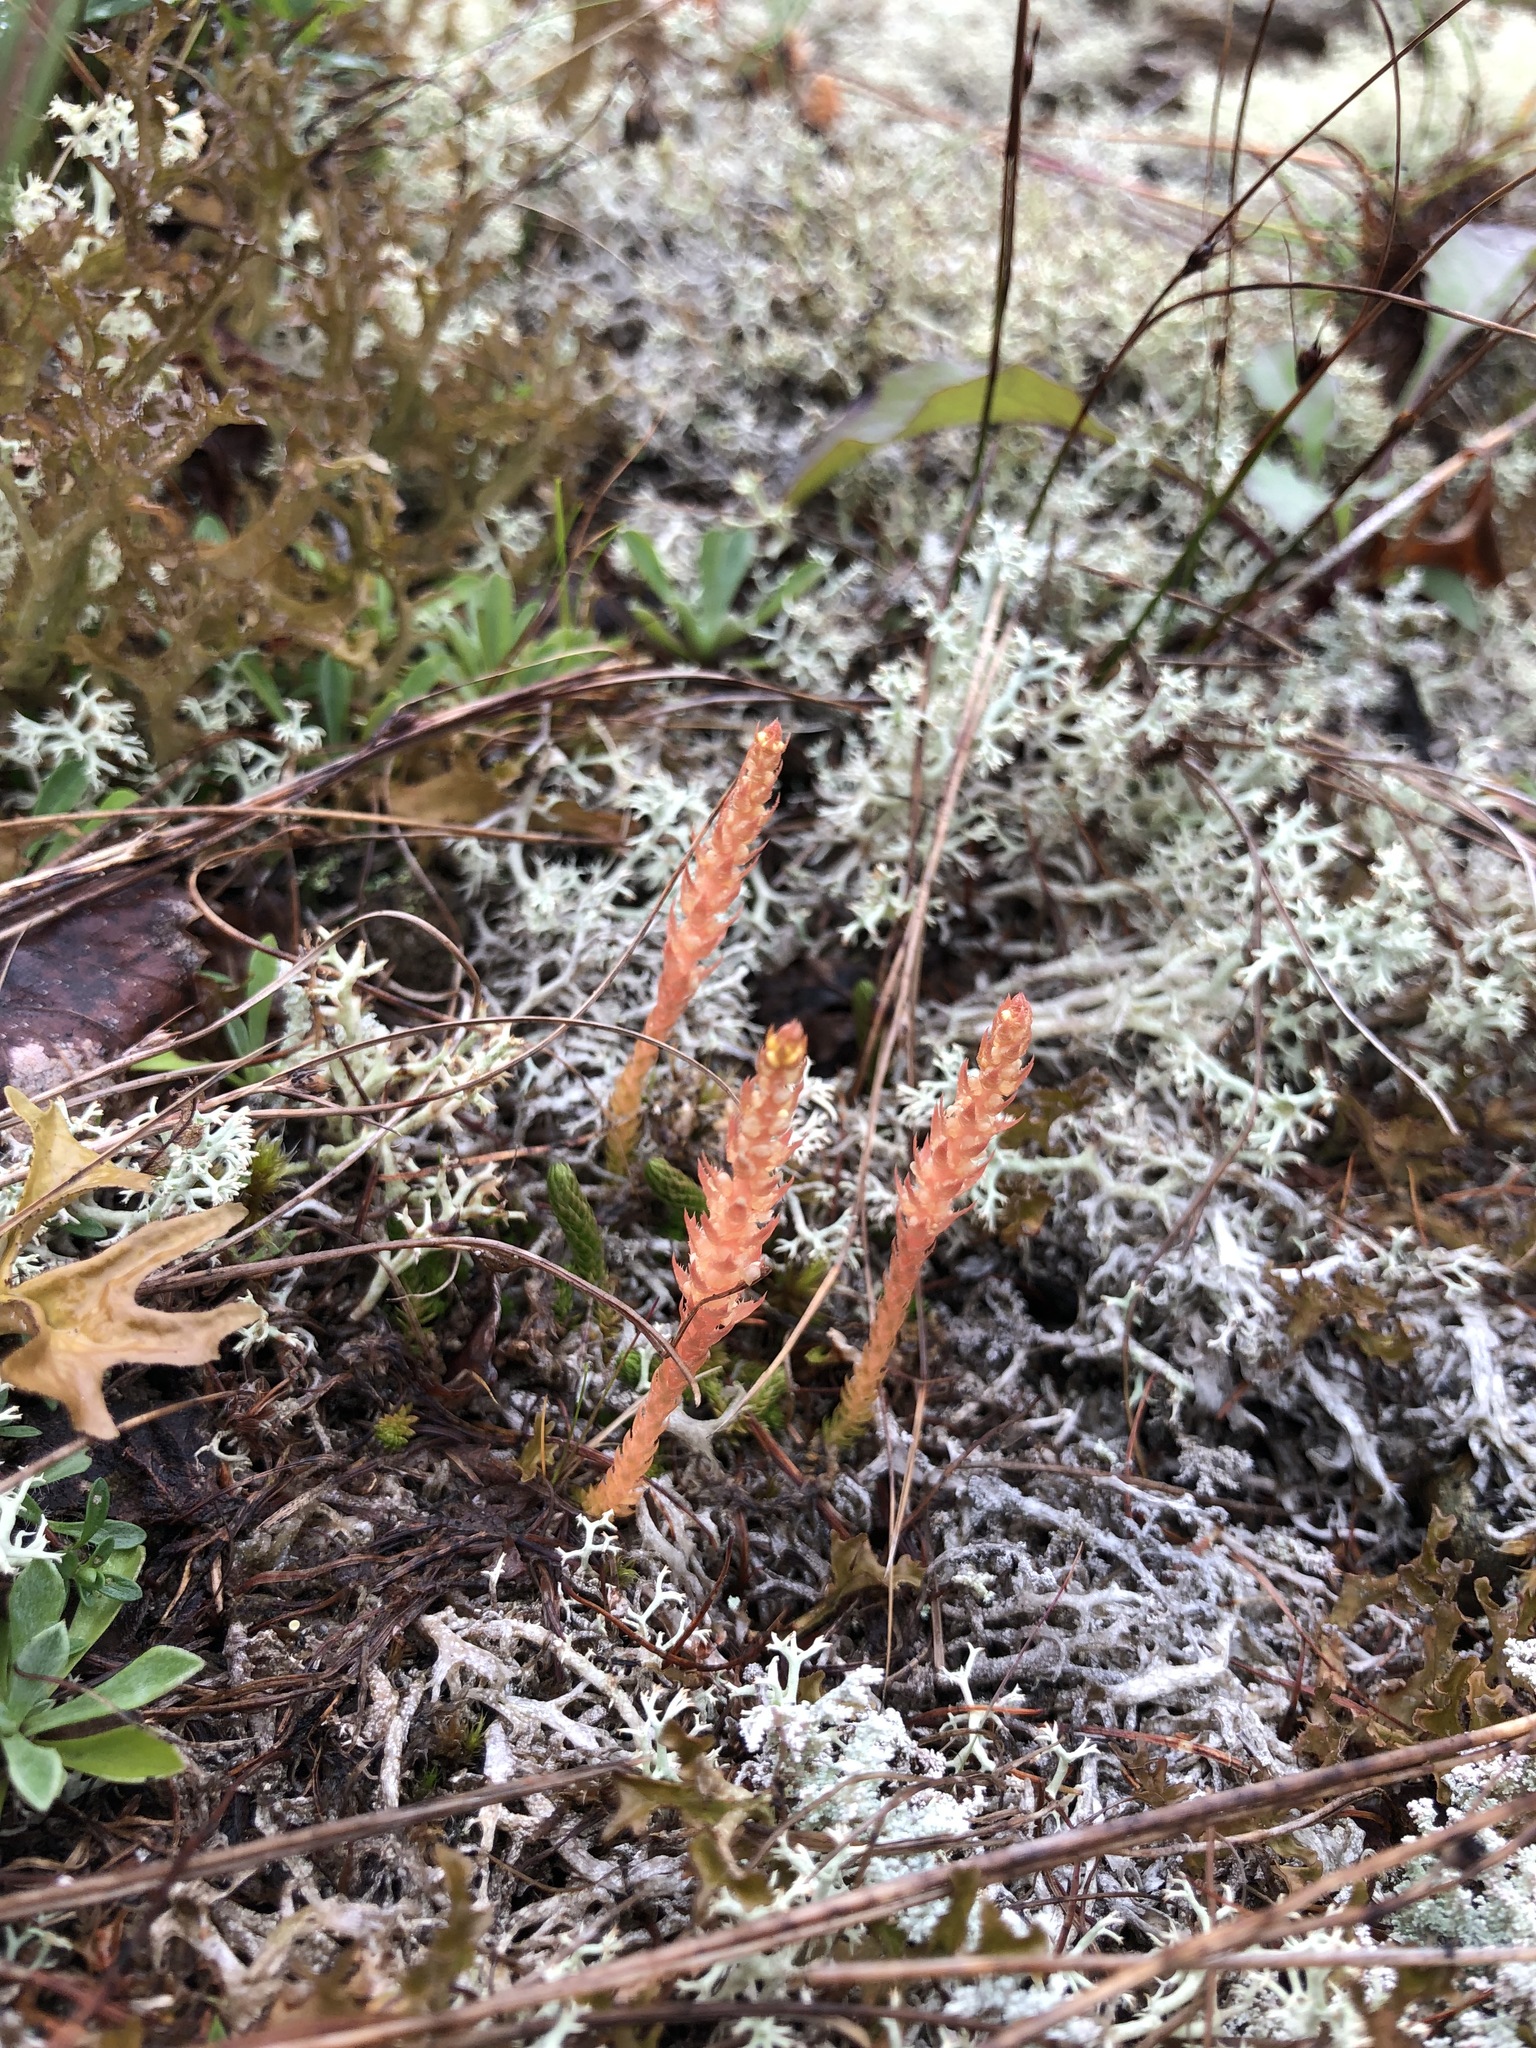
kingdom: Plantae
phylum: Tracheophyta
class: Lycopodiopsida
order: Selaginellales
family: Selaginellaceae
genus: Selaginella
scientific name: Selaginella selaginoides
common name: Prickly mountain-moss
